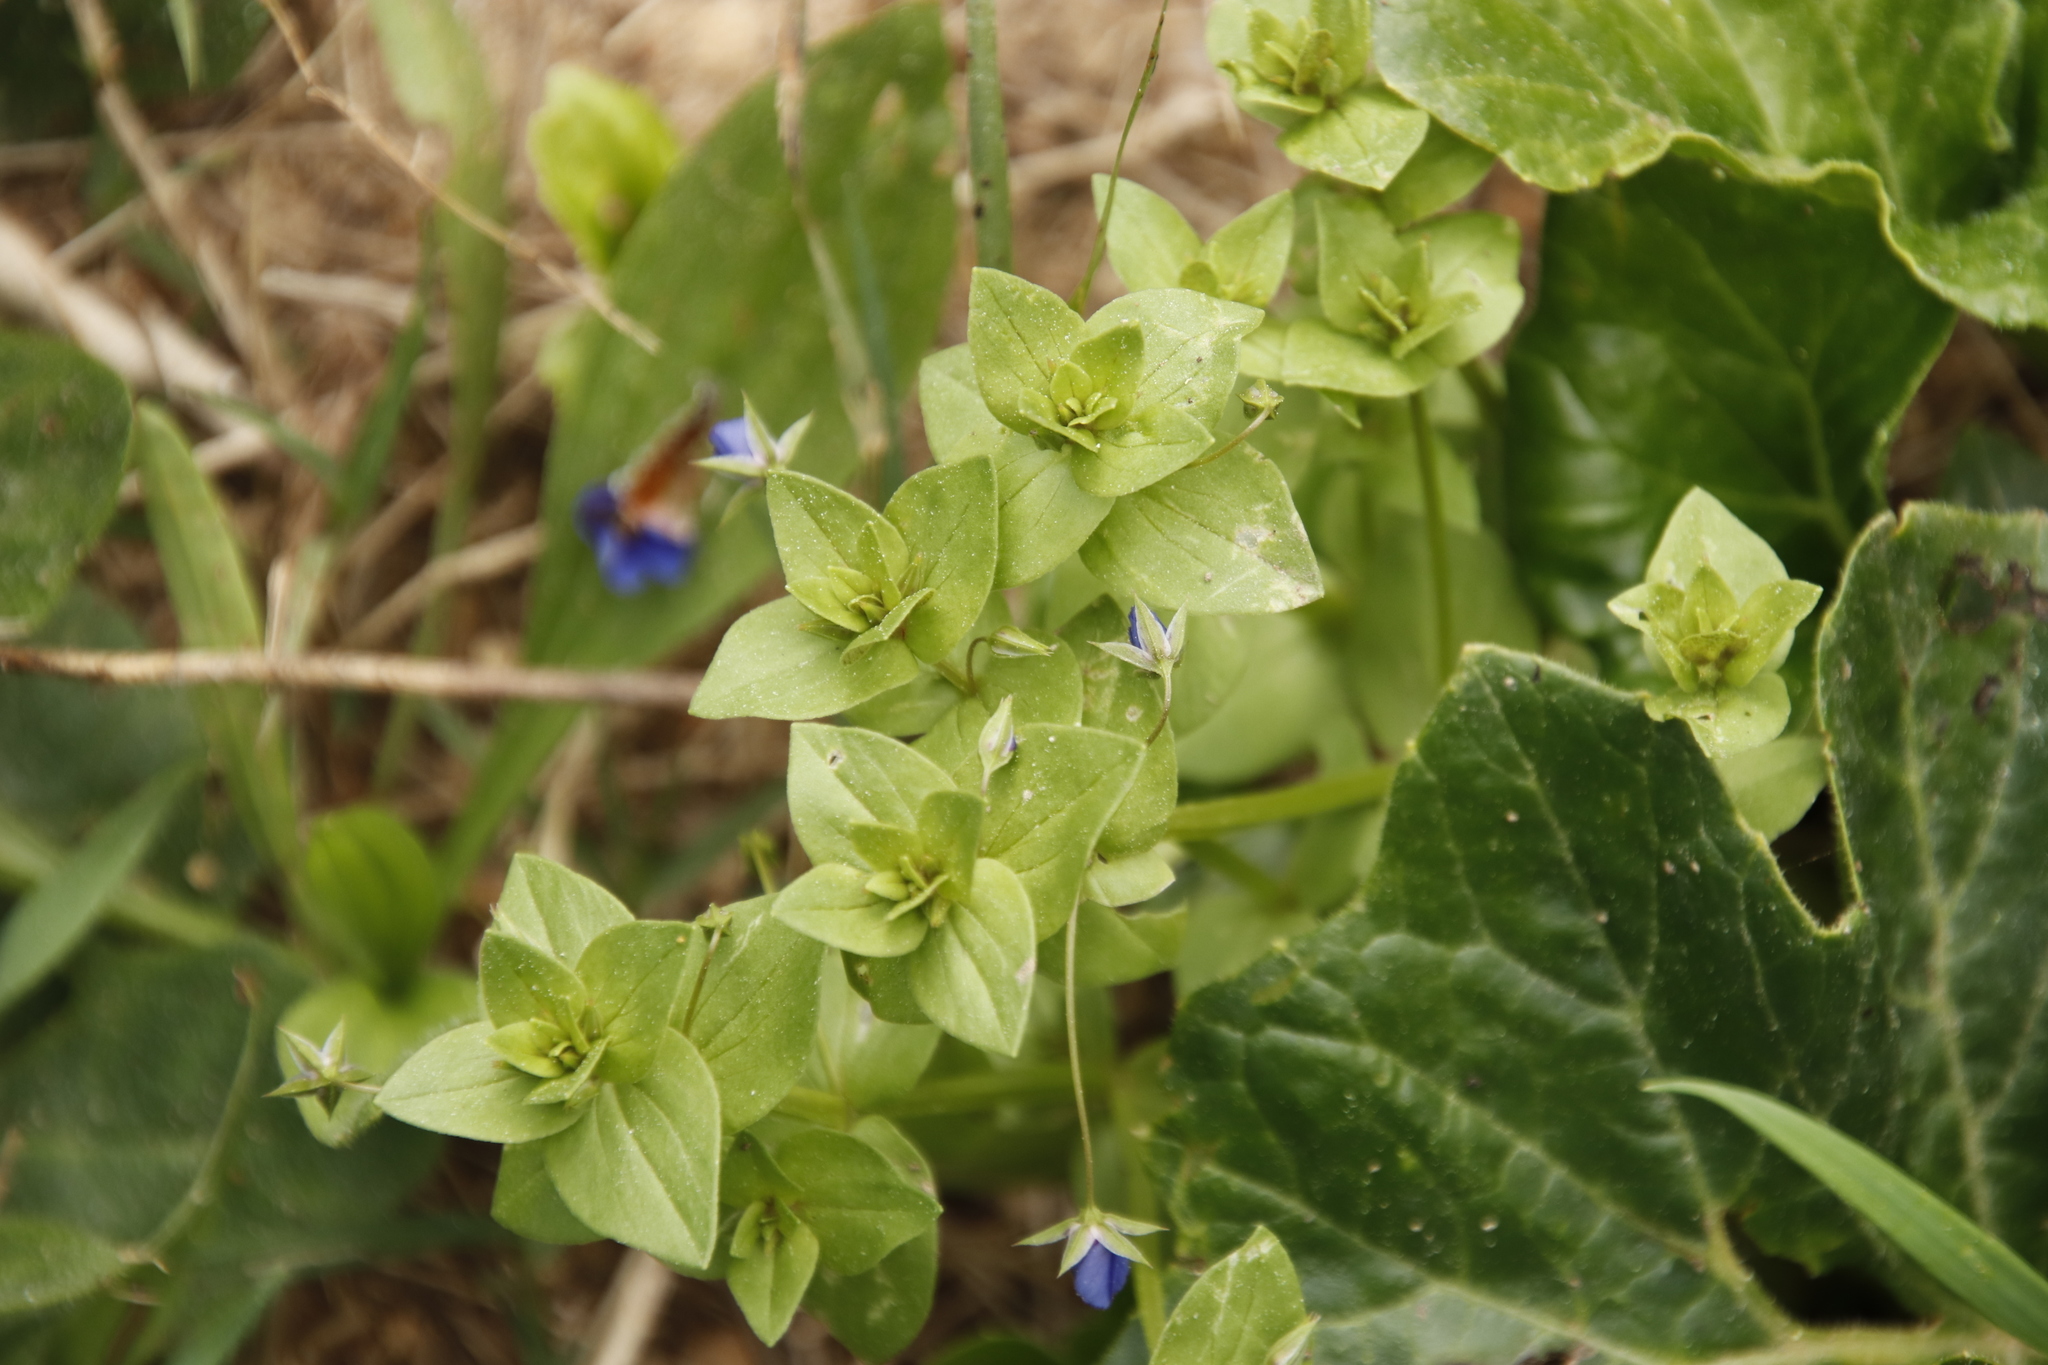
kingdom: Plantae
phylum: Tracheophyta
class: Magnoliopsida
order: Ericales
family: Primulaceae
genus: Lysimachia
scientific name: Lysimachia loeflingii
